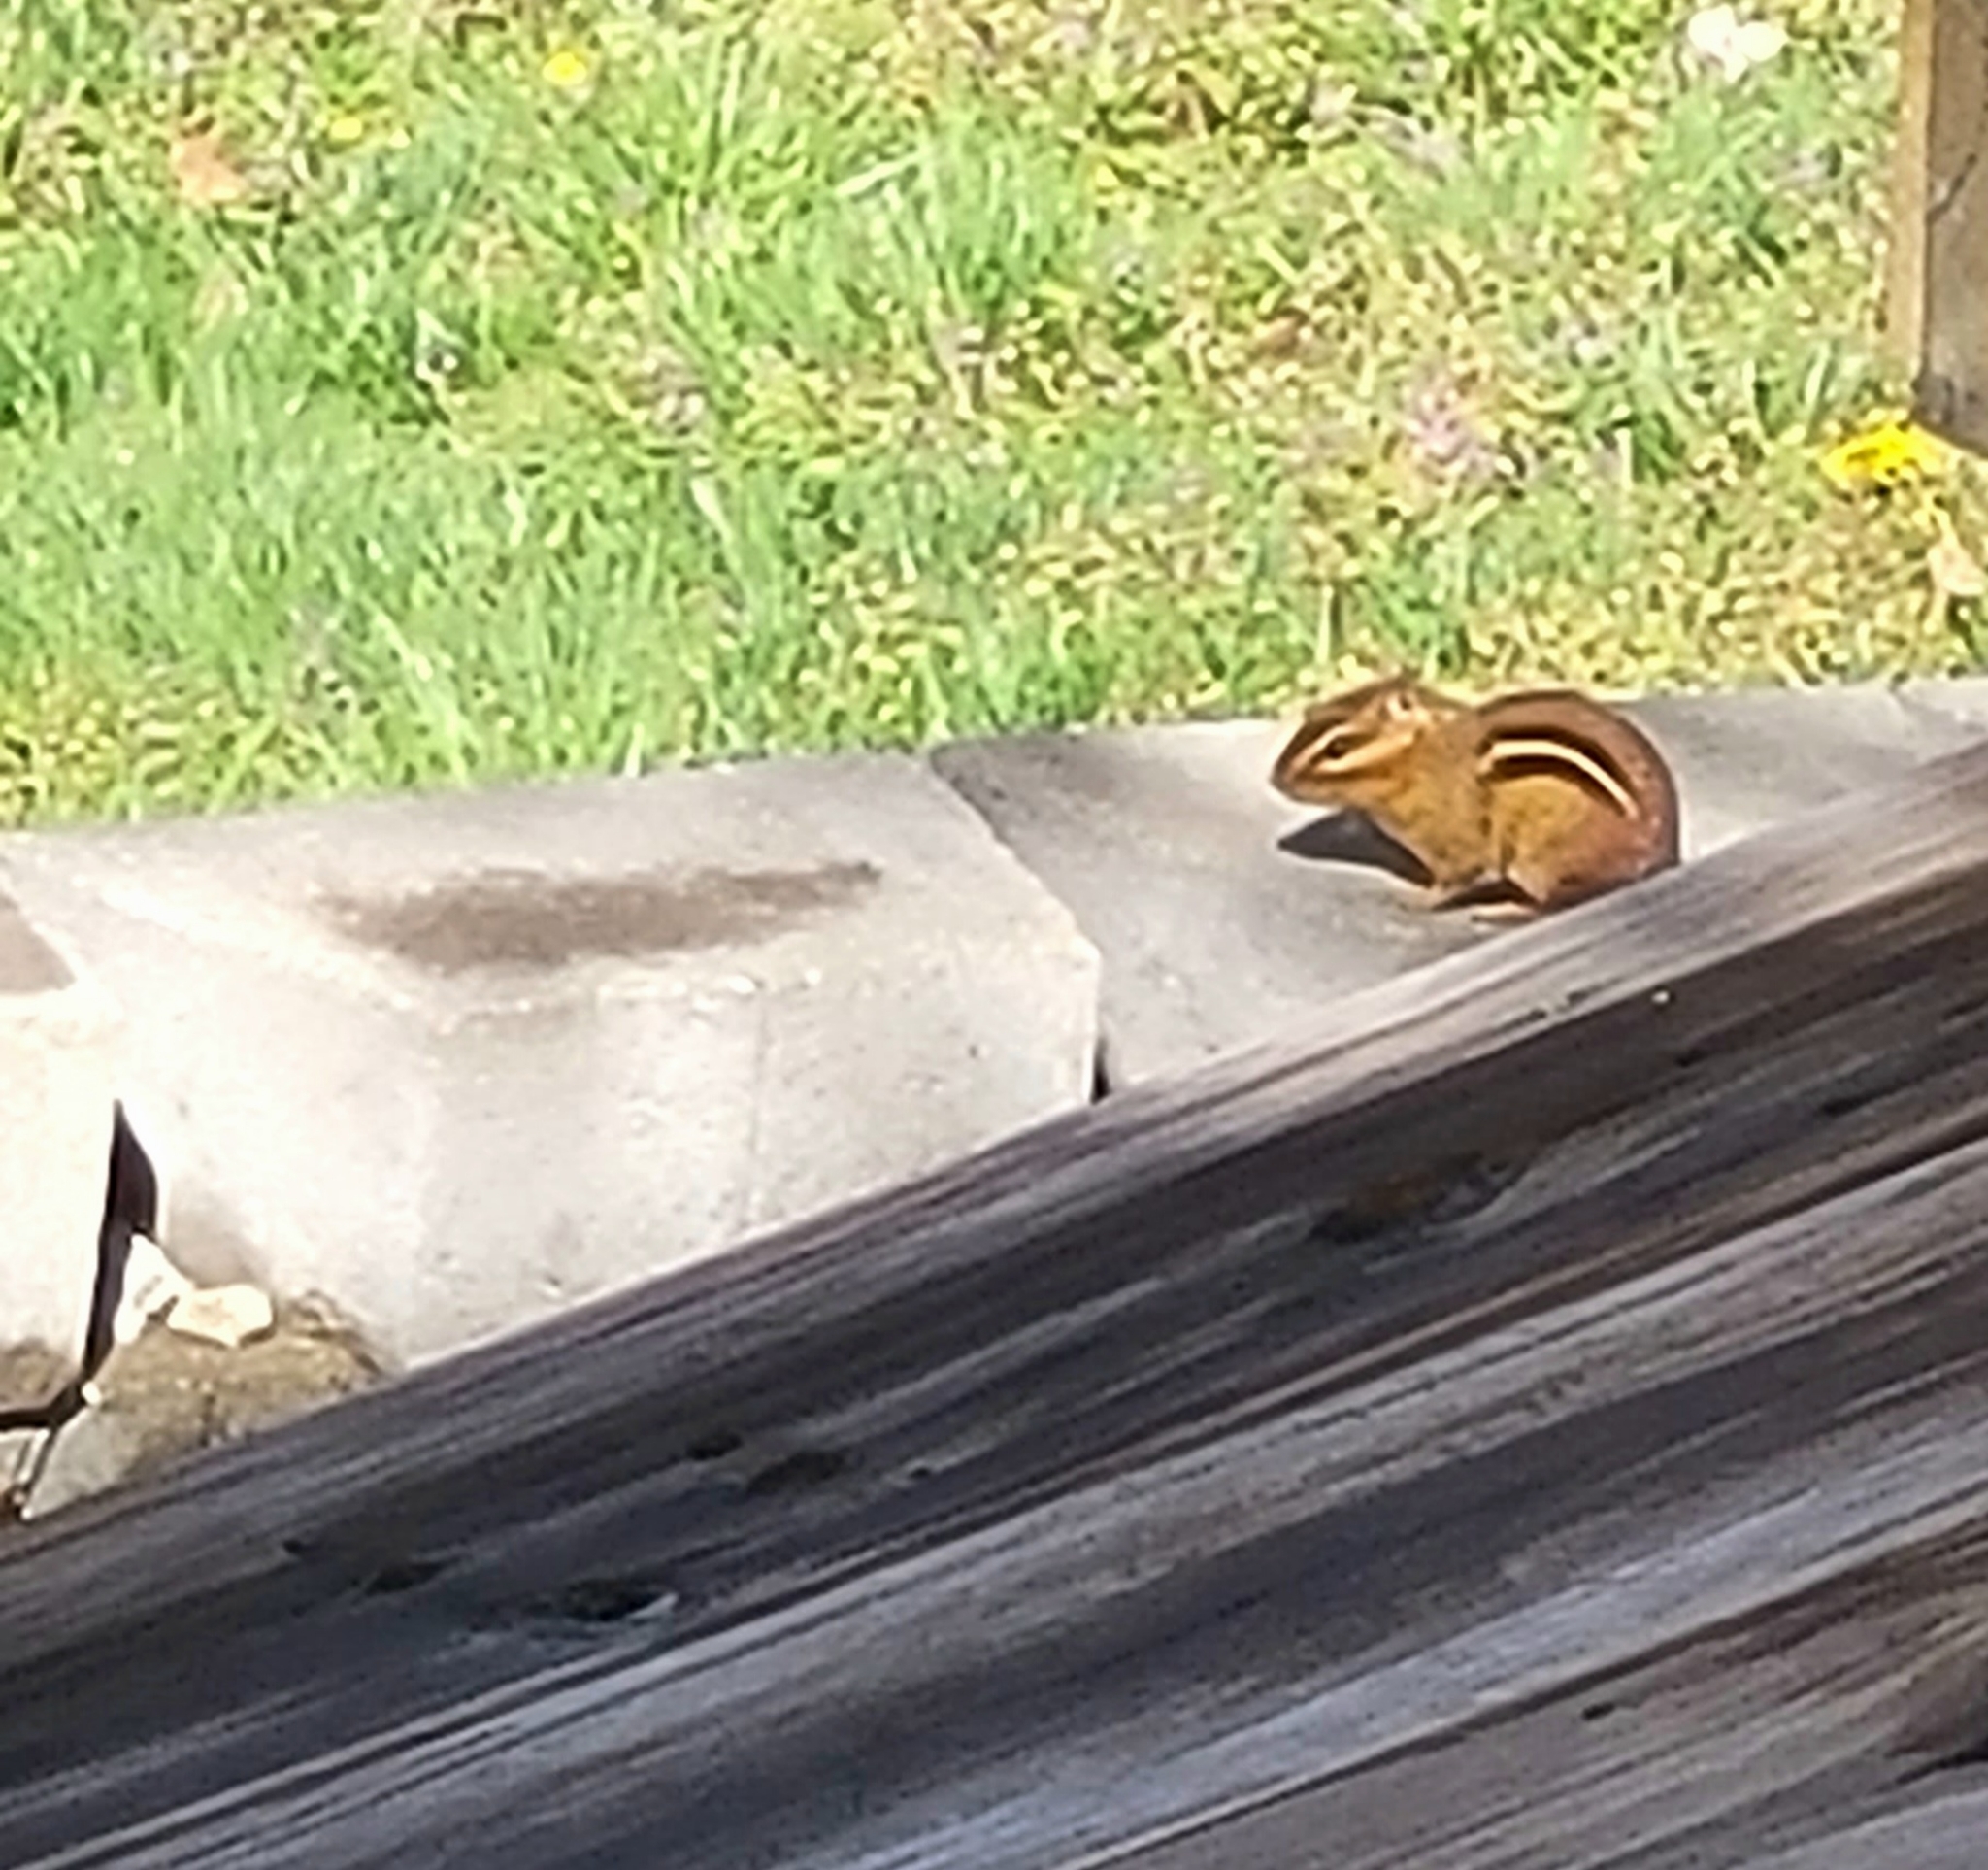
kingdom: Animalia
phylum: Chordata
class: Mammalia
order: Rodentia
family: Sciuridae
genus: Tamias
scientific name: Tamias striatus
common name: Eastern chipmunk
